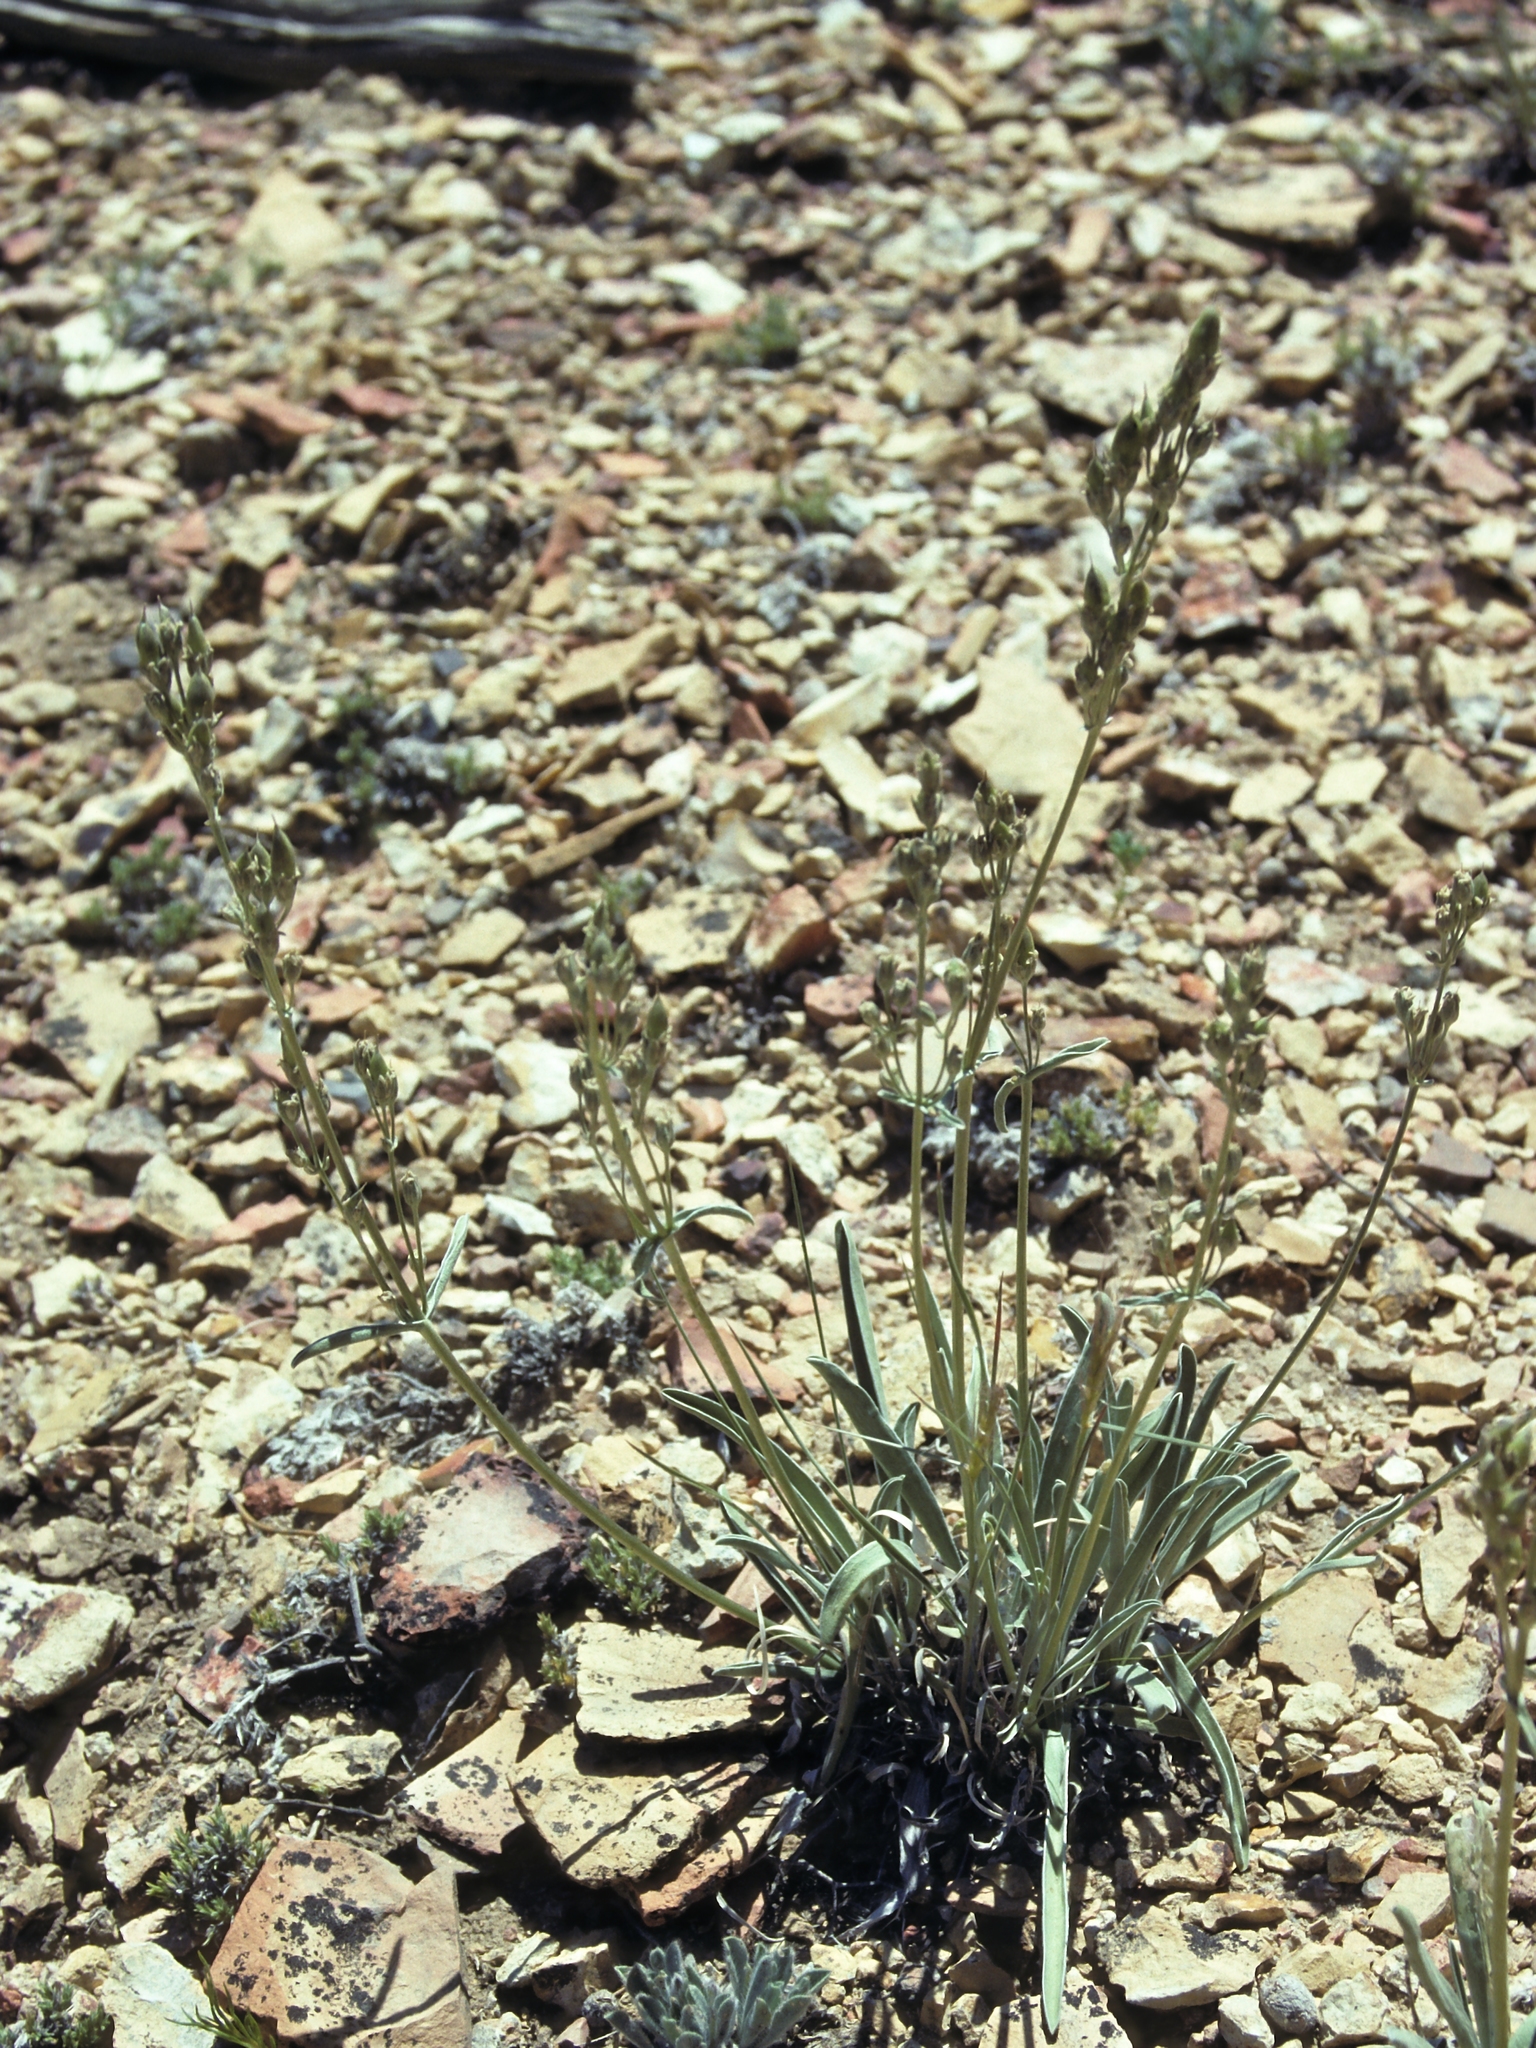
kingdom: Plantae
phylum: Tracheophyta
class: Magnoliopsida
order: Gentianales
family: Gentianaceae
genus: Frasera
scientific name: Frasera albicaulis
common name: Cusick's frasera
